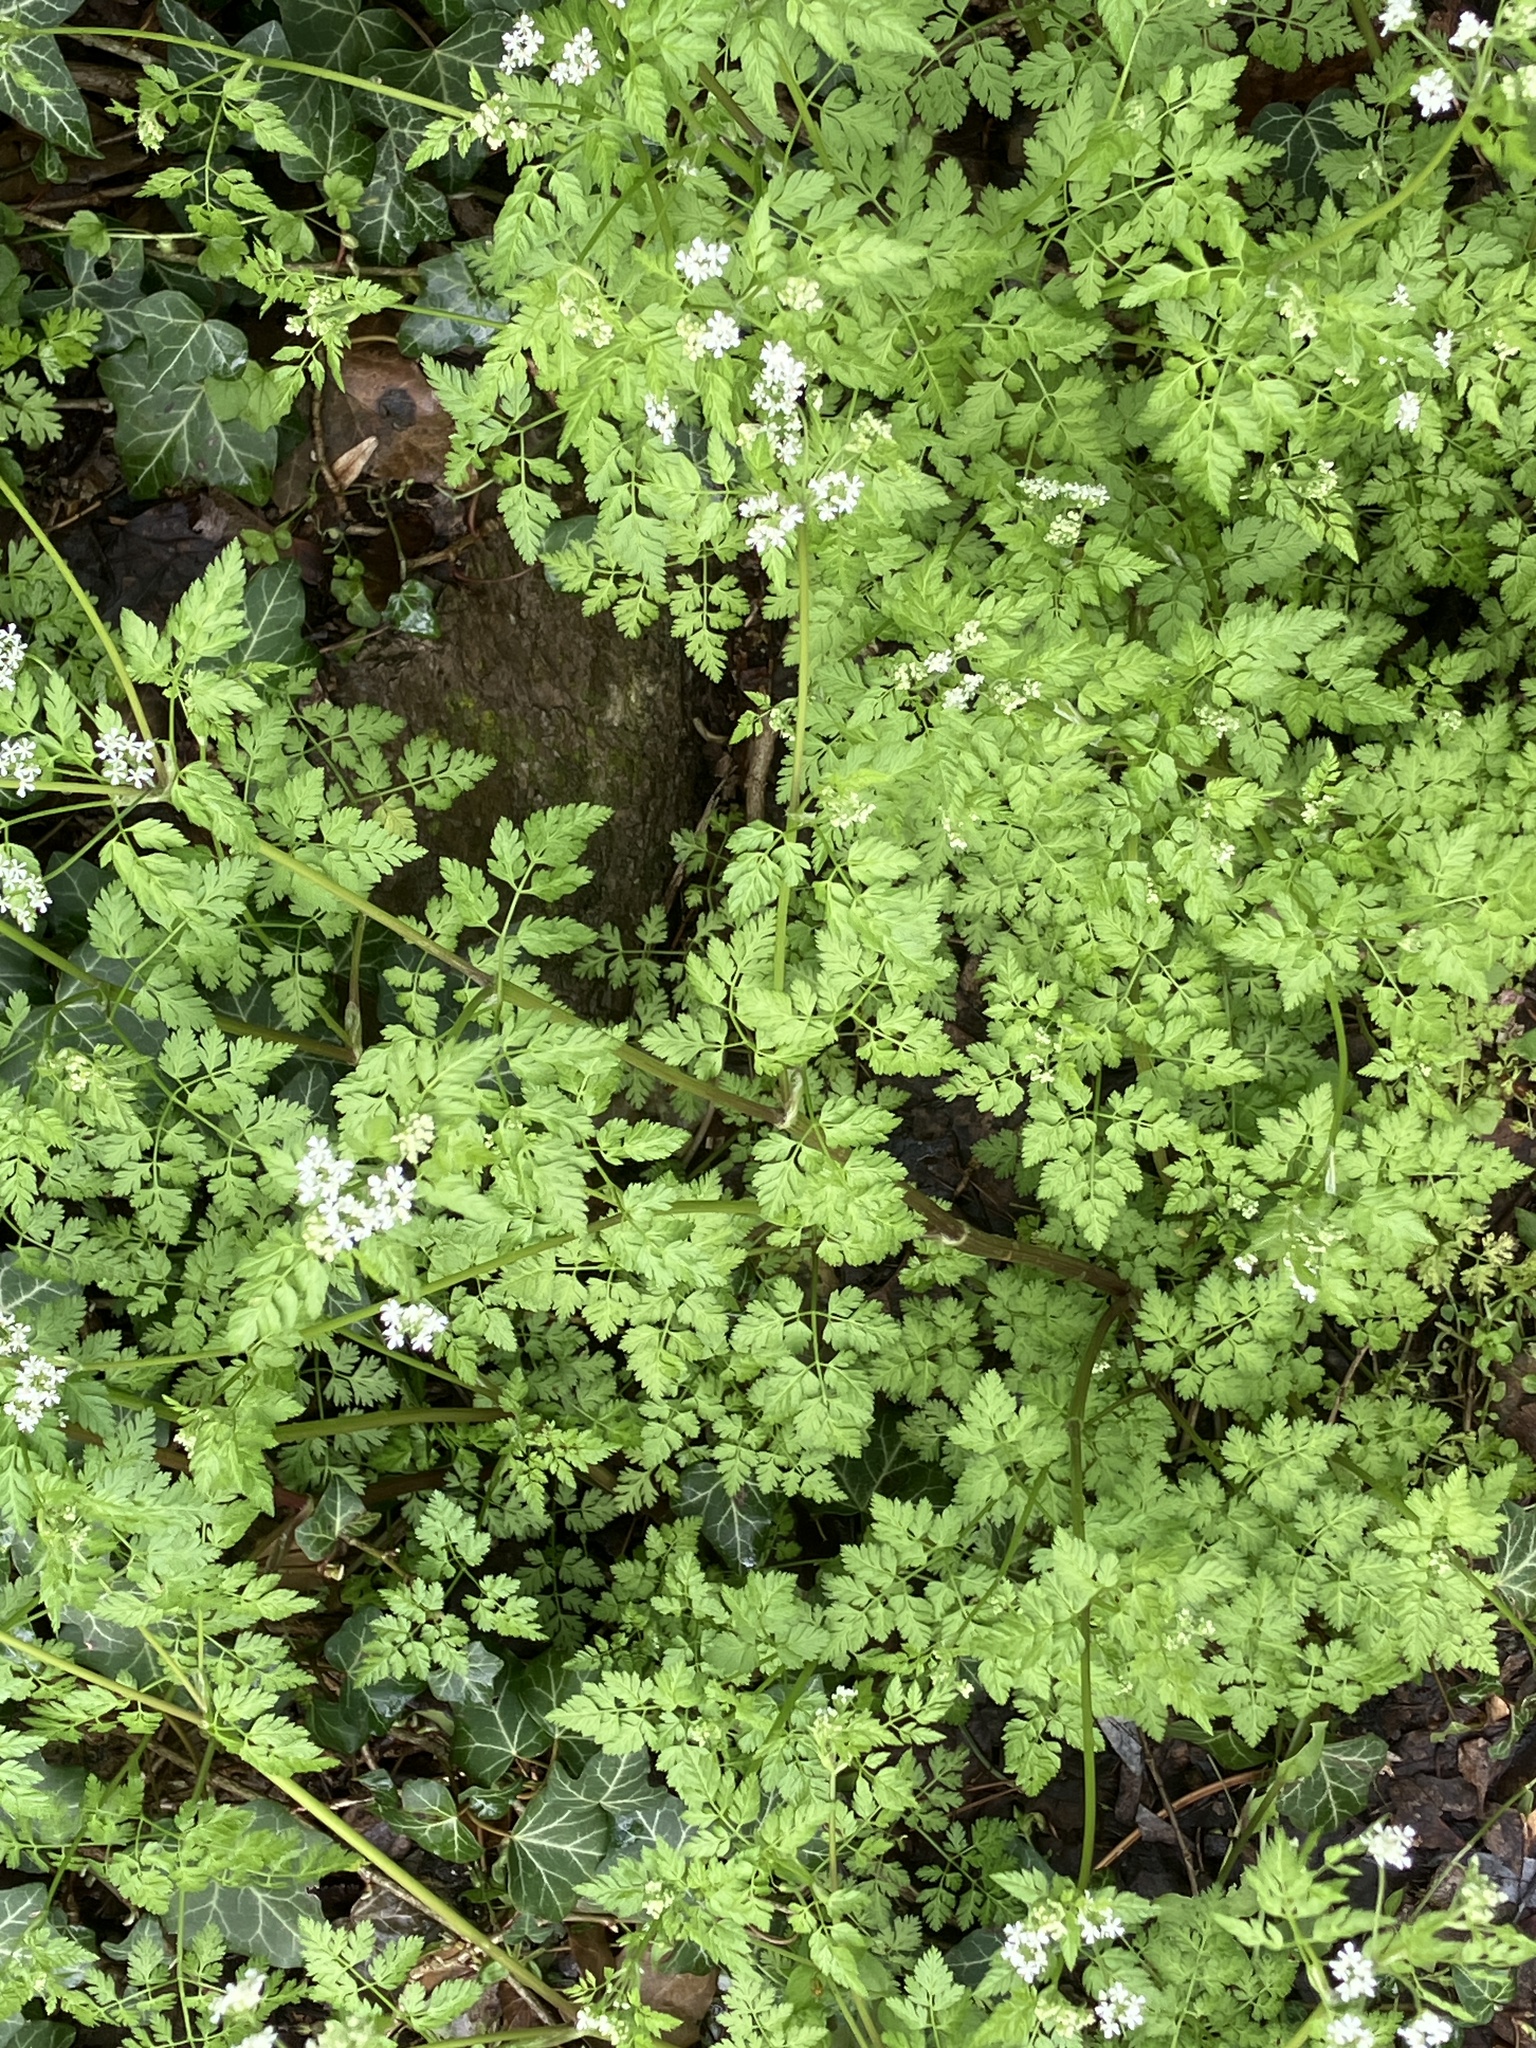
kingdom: Plantae
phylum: Tracheophyta
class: Magnoliopsida
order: Apiales
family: Apiaceae
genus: Anthriscus
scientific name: Anthriscus cerefolium
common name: Garden chervil
